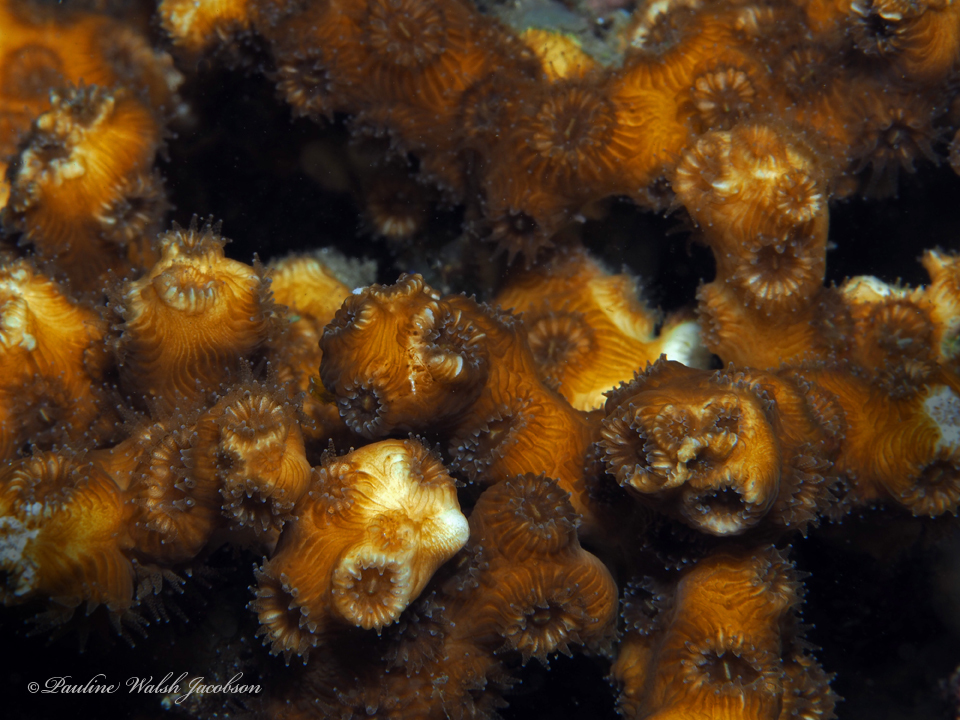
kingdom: Animalia
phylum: Cnidaria
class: Anthozoa
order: Scleractinia
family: Cladocoridae
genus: Cladocora
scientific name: Cladocora arbuscula
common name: Tube coral
